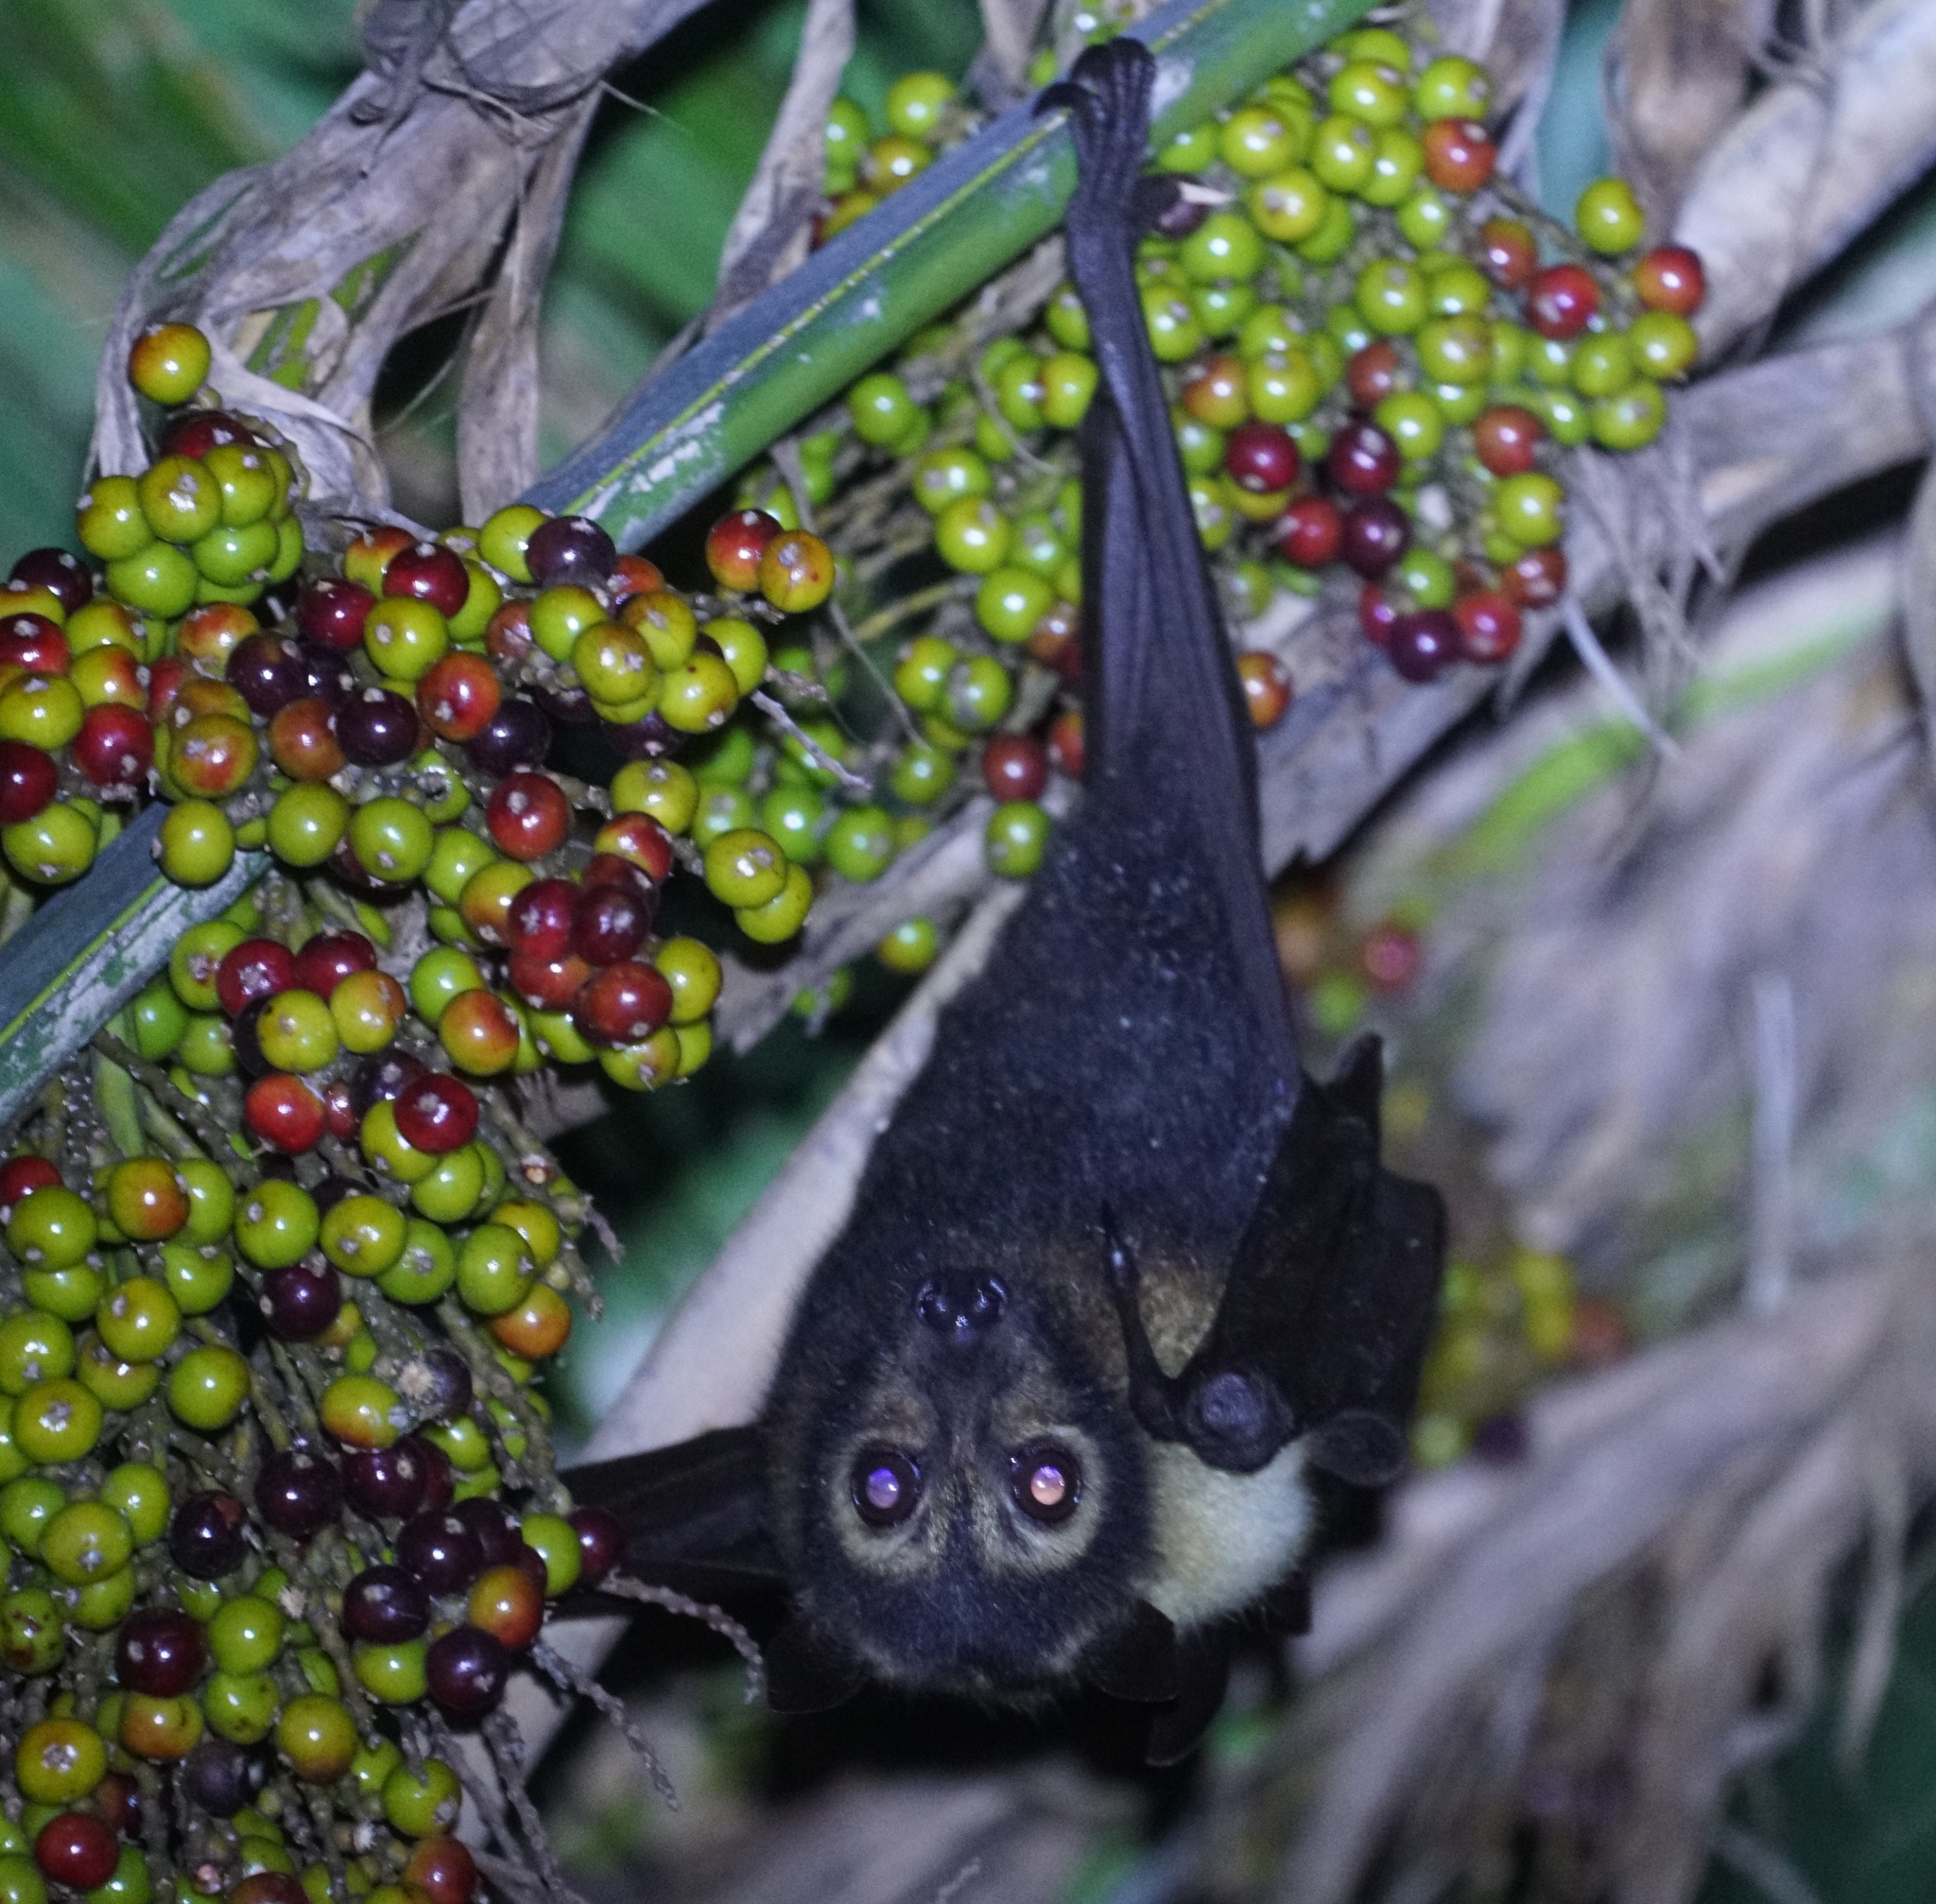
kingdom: Animalia
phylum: Chordata
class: Mammalia
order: Chiroptera
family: Pteropodidae
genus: Pteropus
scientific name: Pteropus conspicillatus
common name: Spectacled flying fox
